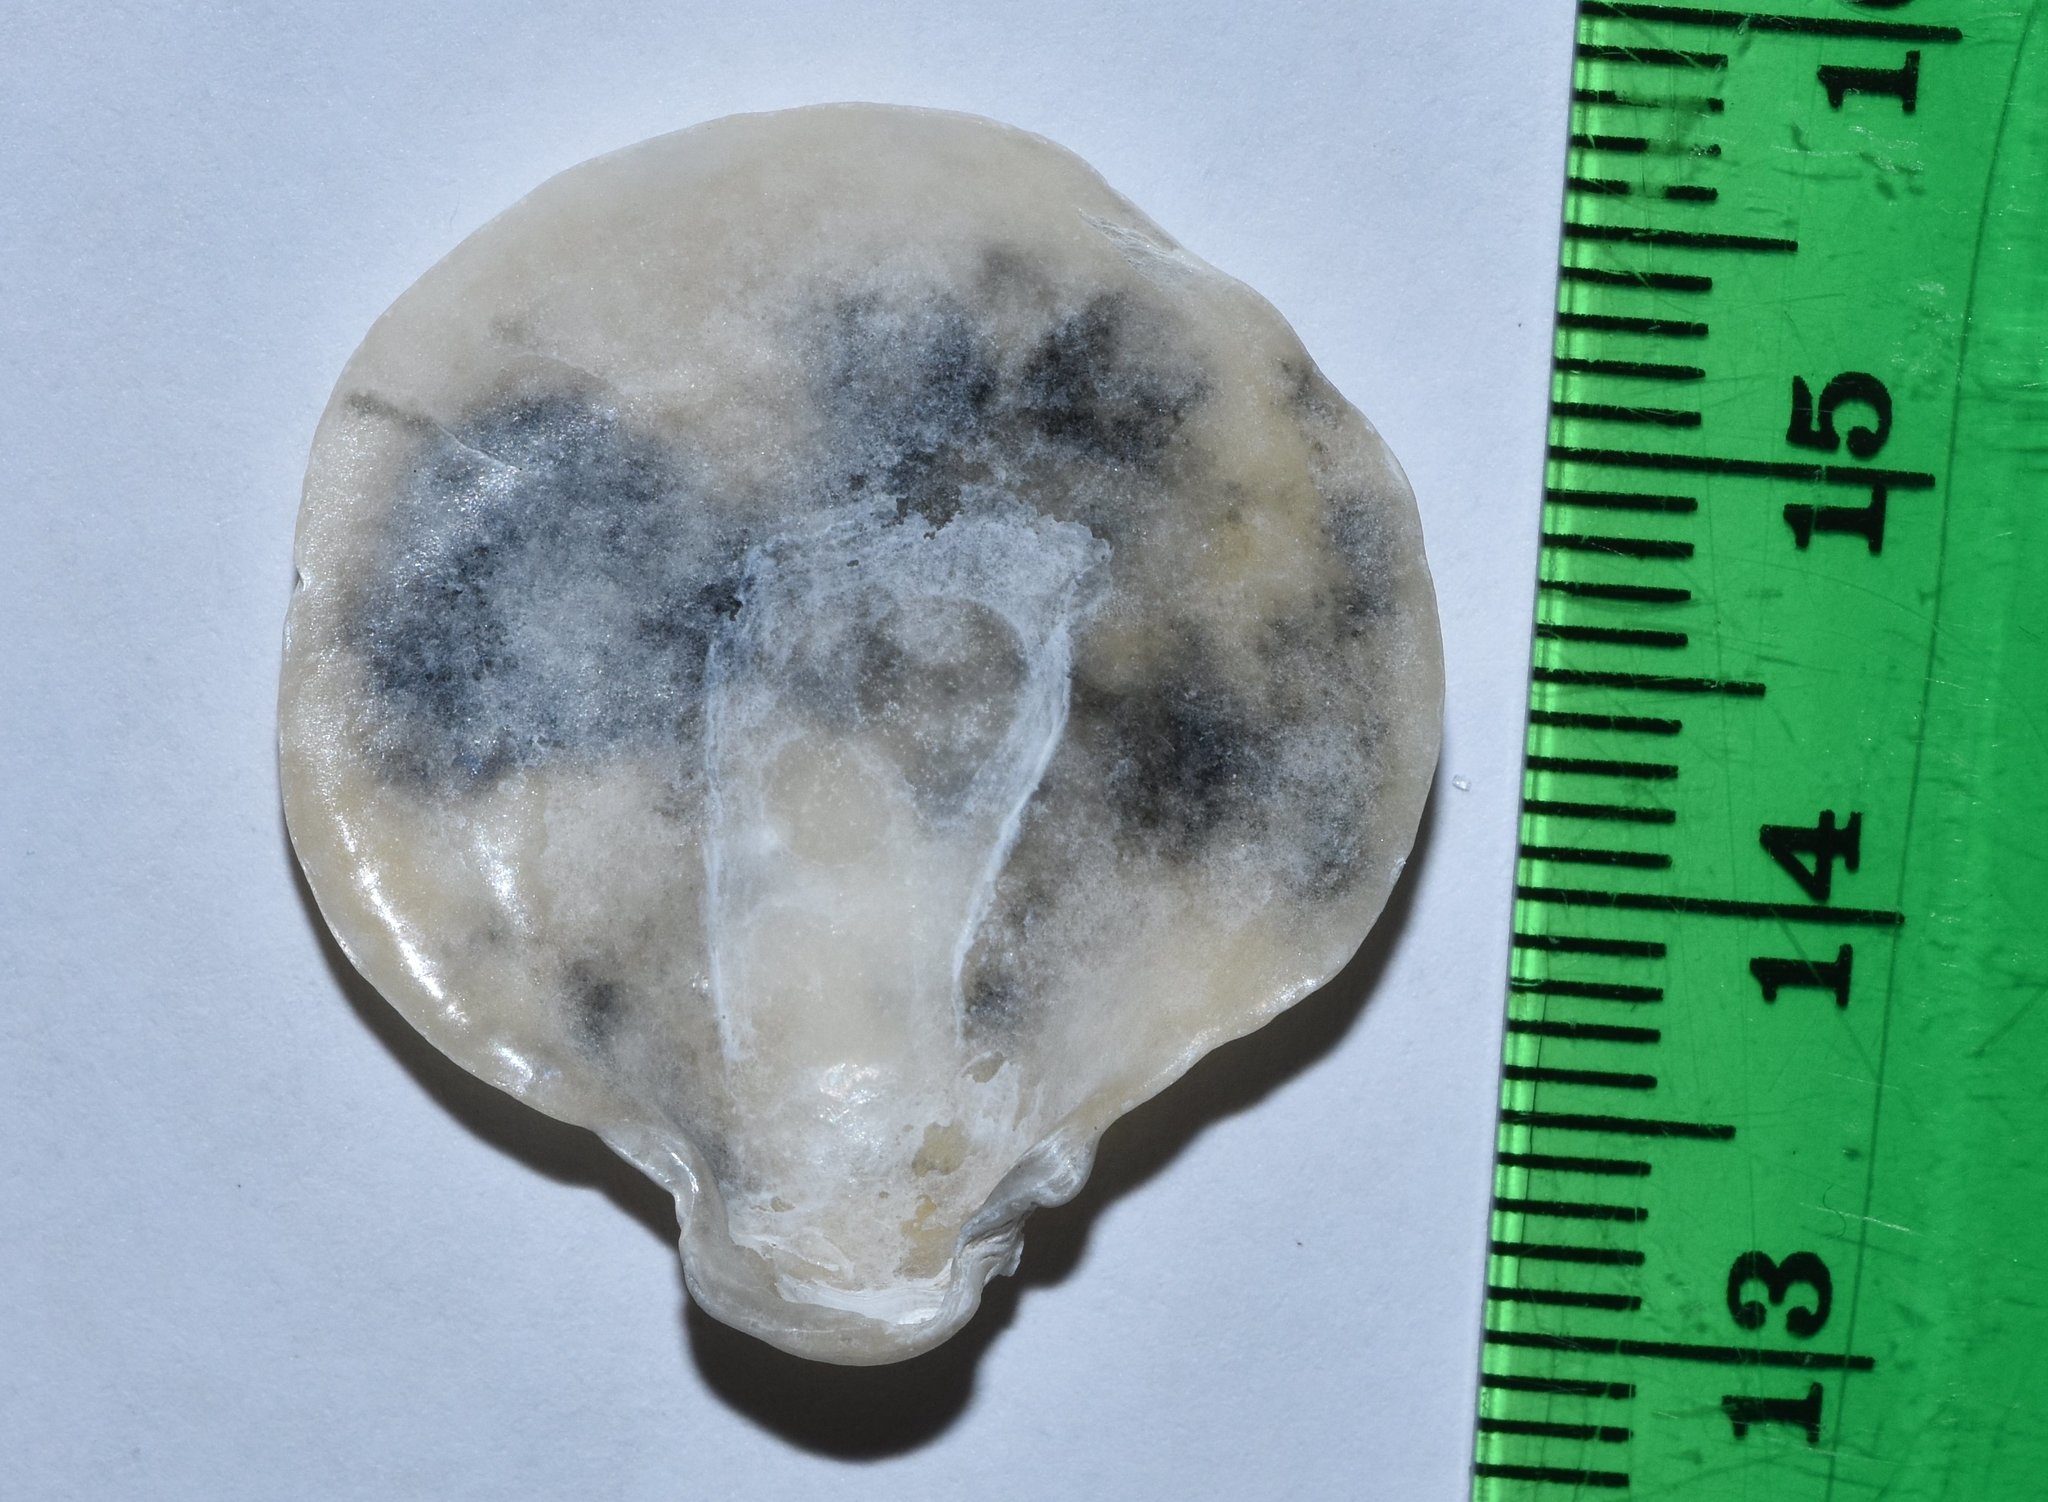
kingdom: Animalia
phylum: Mollusca
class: Bivalvia
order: Pectinida
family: Anomiidae
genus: Anomia
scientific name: Anomia simplex
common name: Common jingle shell
